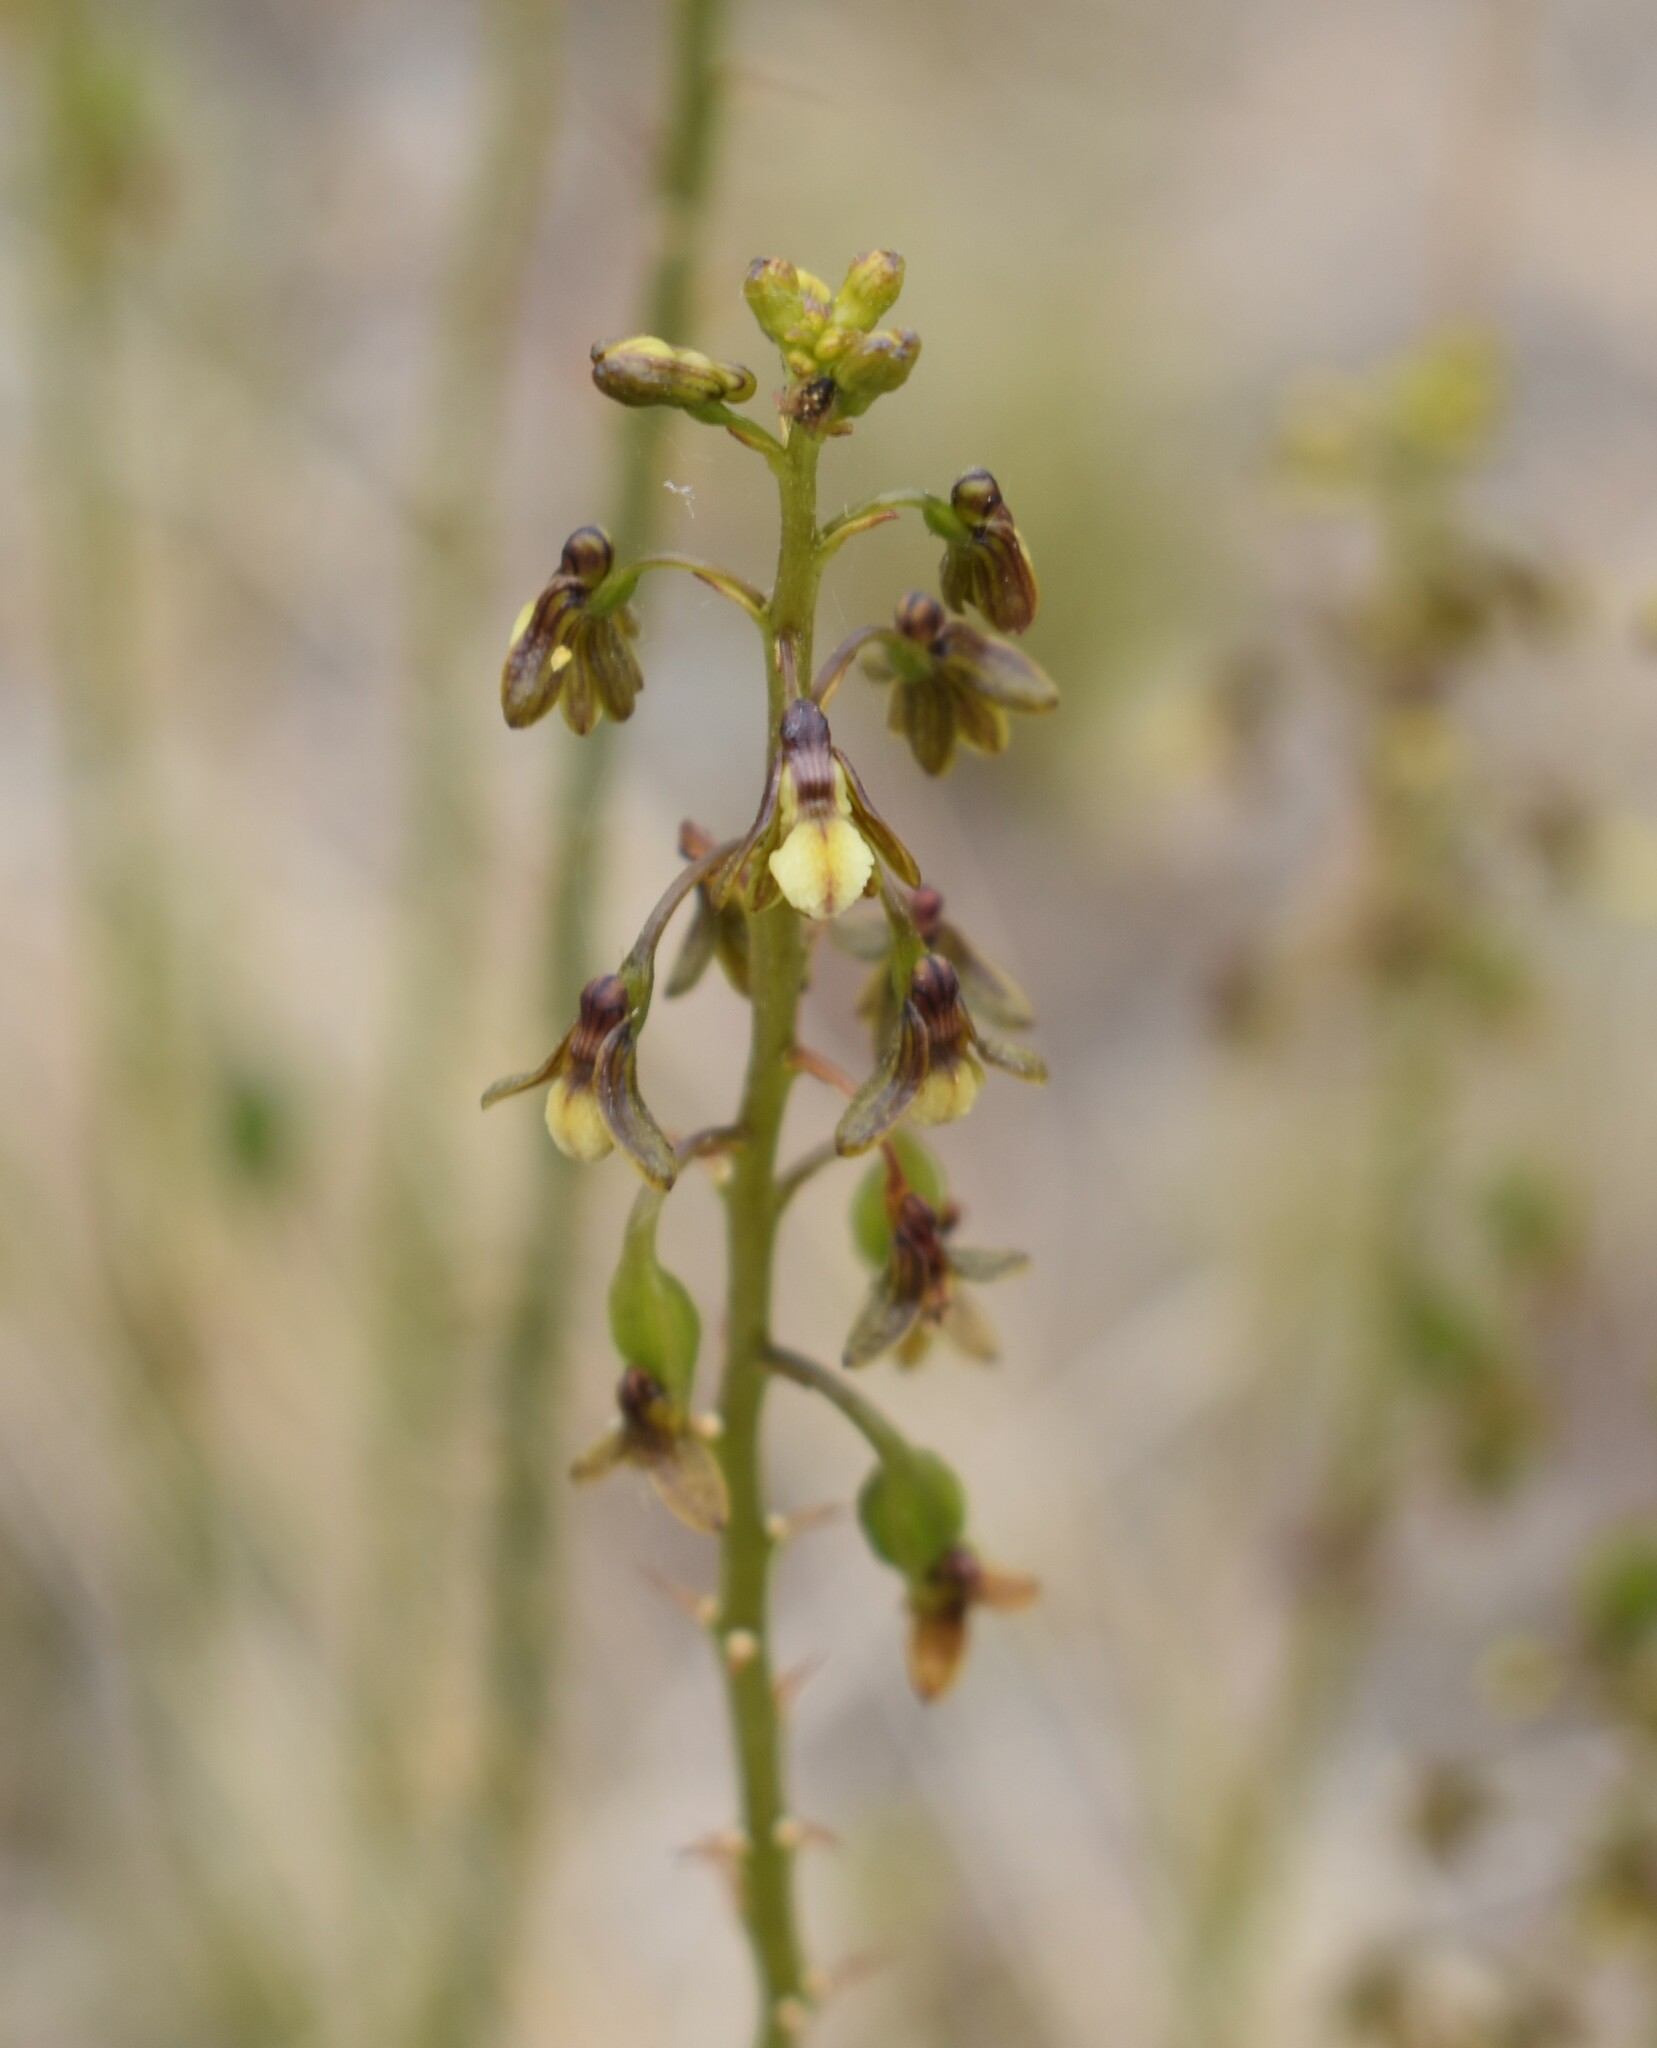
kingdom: Plantae
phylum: Tracheophyta
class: Liliopsida
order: Asparagales
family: Orchidaceae
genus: Eulophia
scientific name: Eulophia cochlearis
